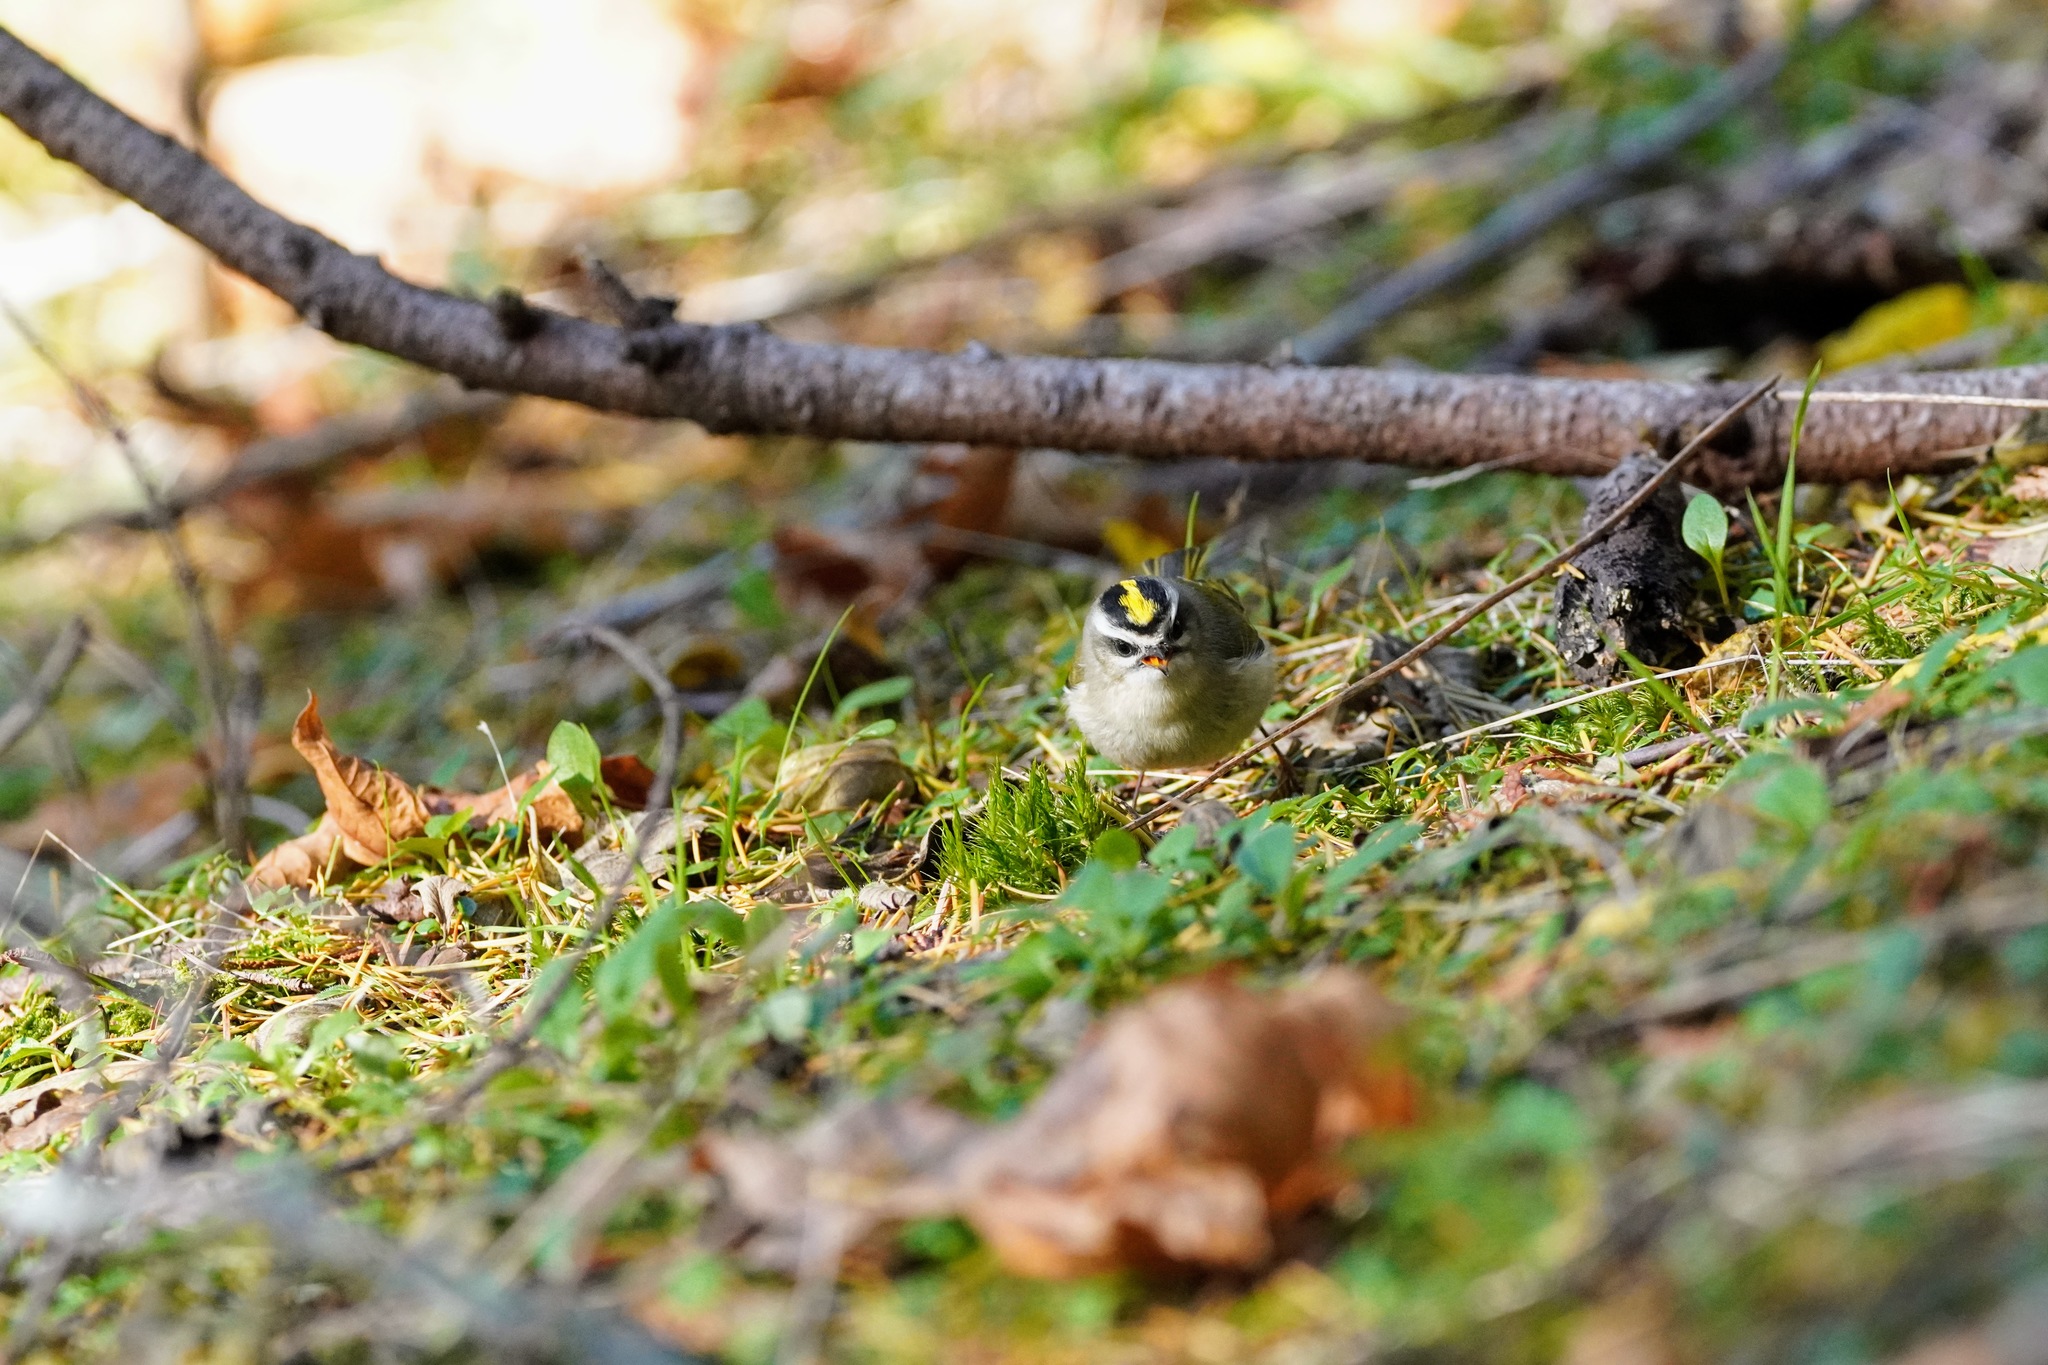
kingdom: Animalia
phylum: Chordata
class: Aves
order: Passeriformes
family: Regulidae
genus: Regulus
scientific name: Regulus satrapa
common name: Golden-crowned kinglet
